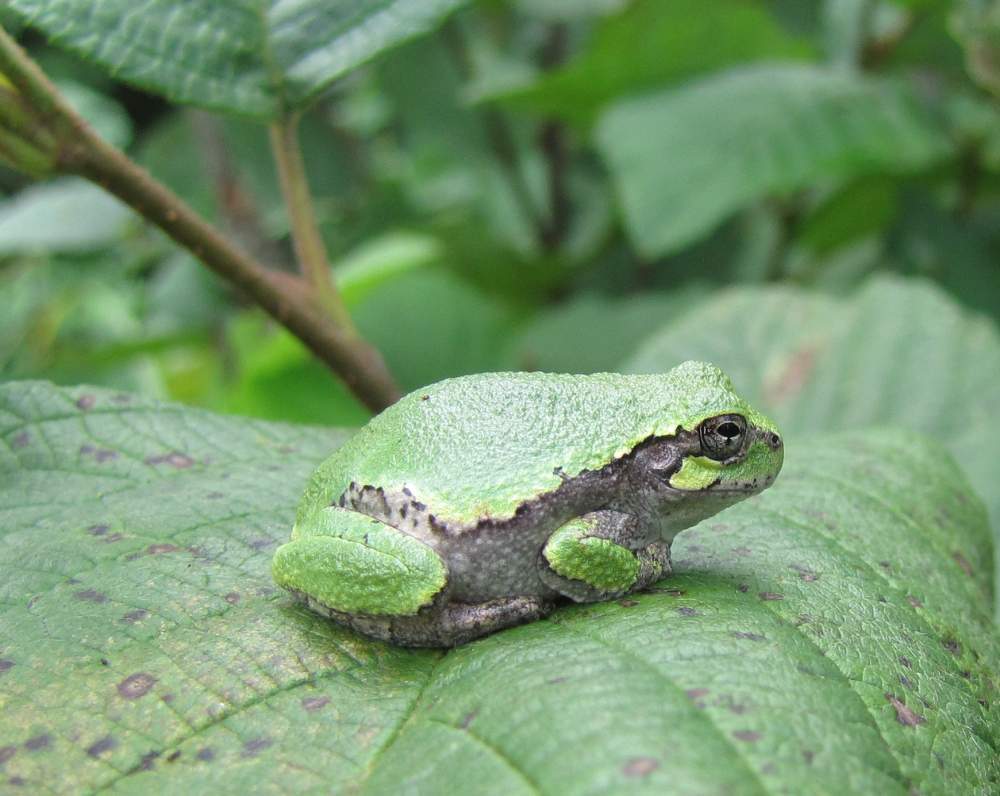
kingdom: Animalia
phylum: Chordata
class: Amphibia
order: Anura
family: Hylidae
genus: Dryophytes
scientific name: Dryophytes versicolor
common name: Gray treefrog
